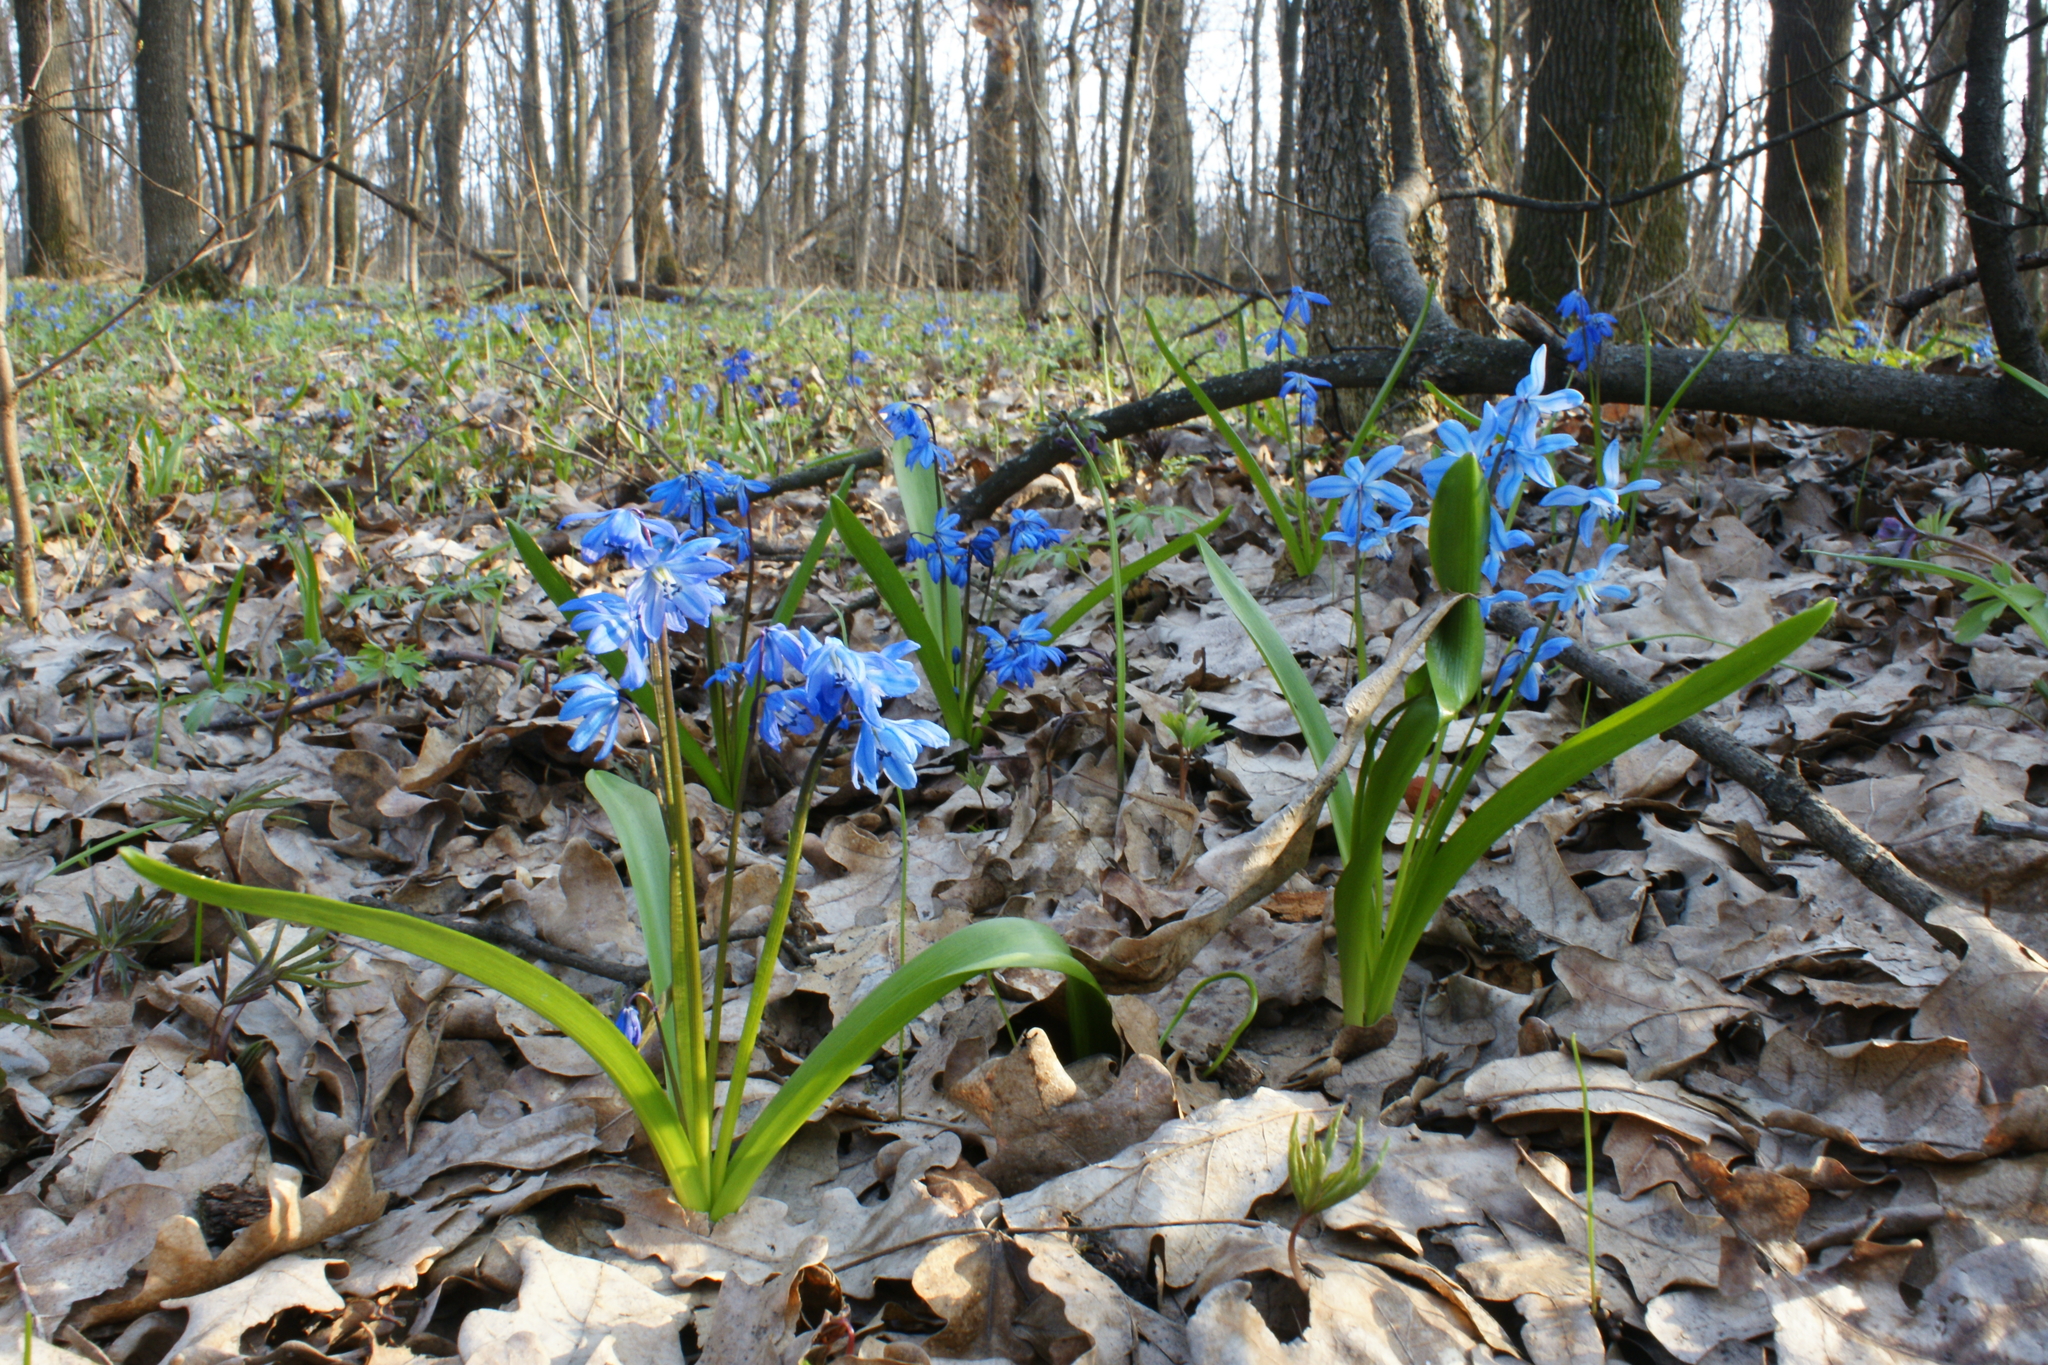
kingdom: Plantae
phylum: Tracheophyta
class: Liliopsida
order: Asparagales
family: Asparagaceae
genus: Scilla
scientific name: Scilla siberica
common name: Siberian squill
